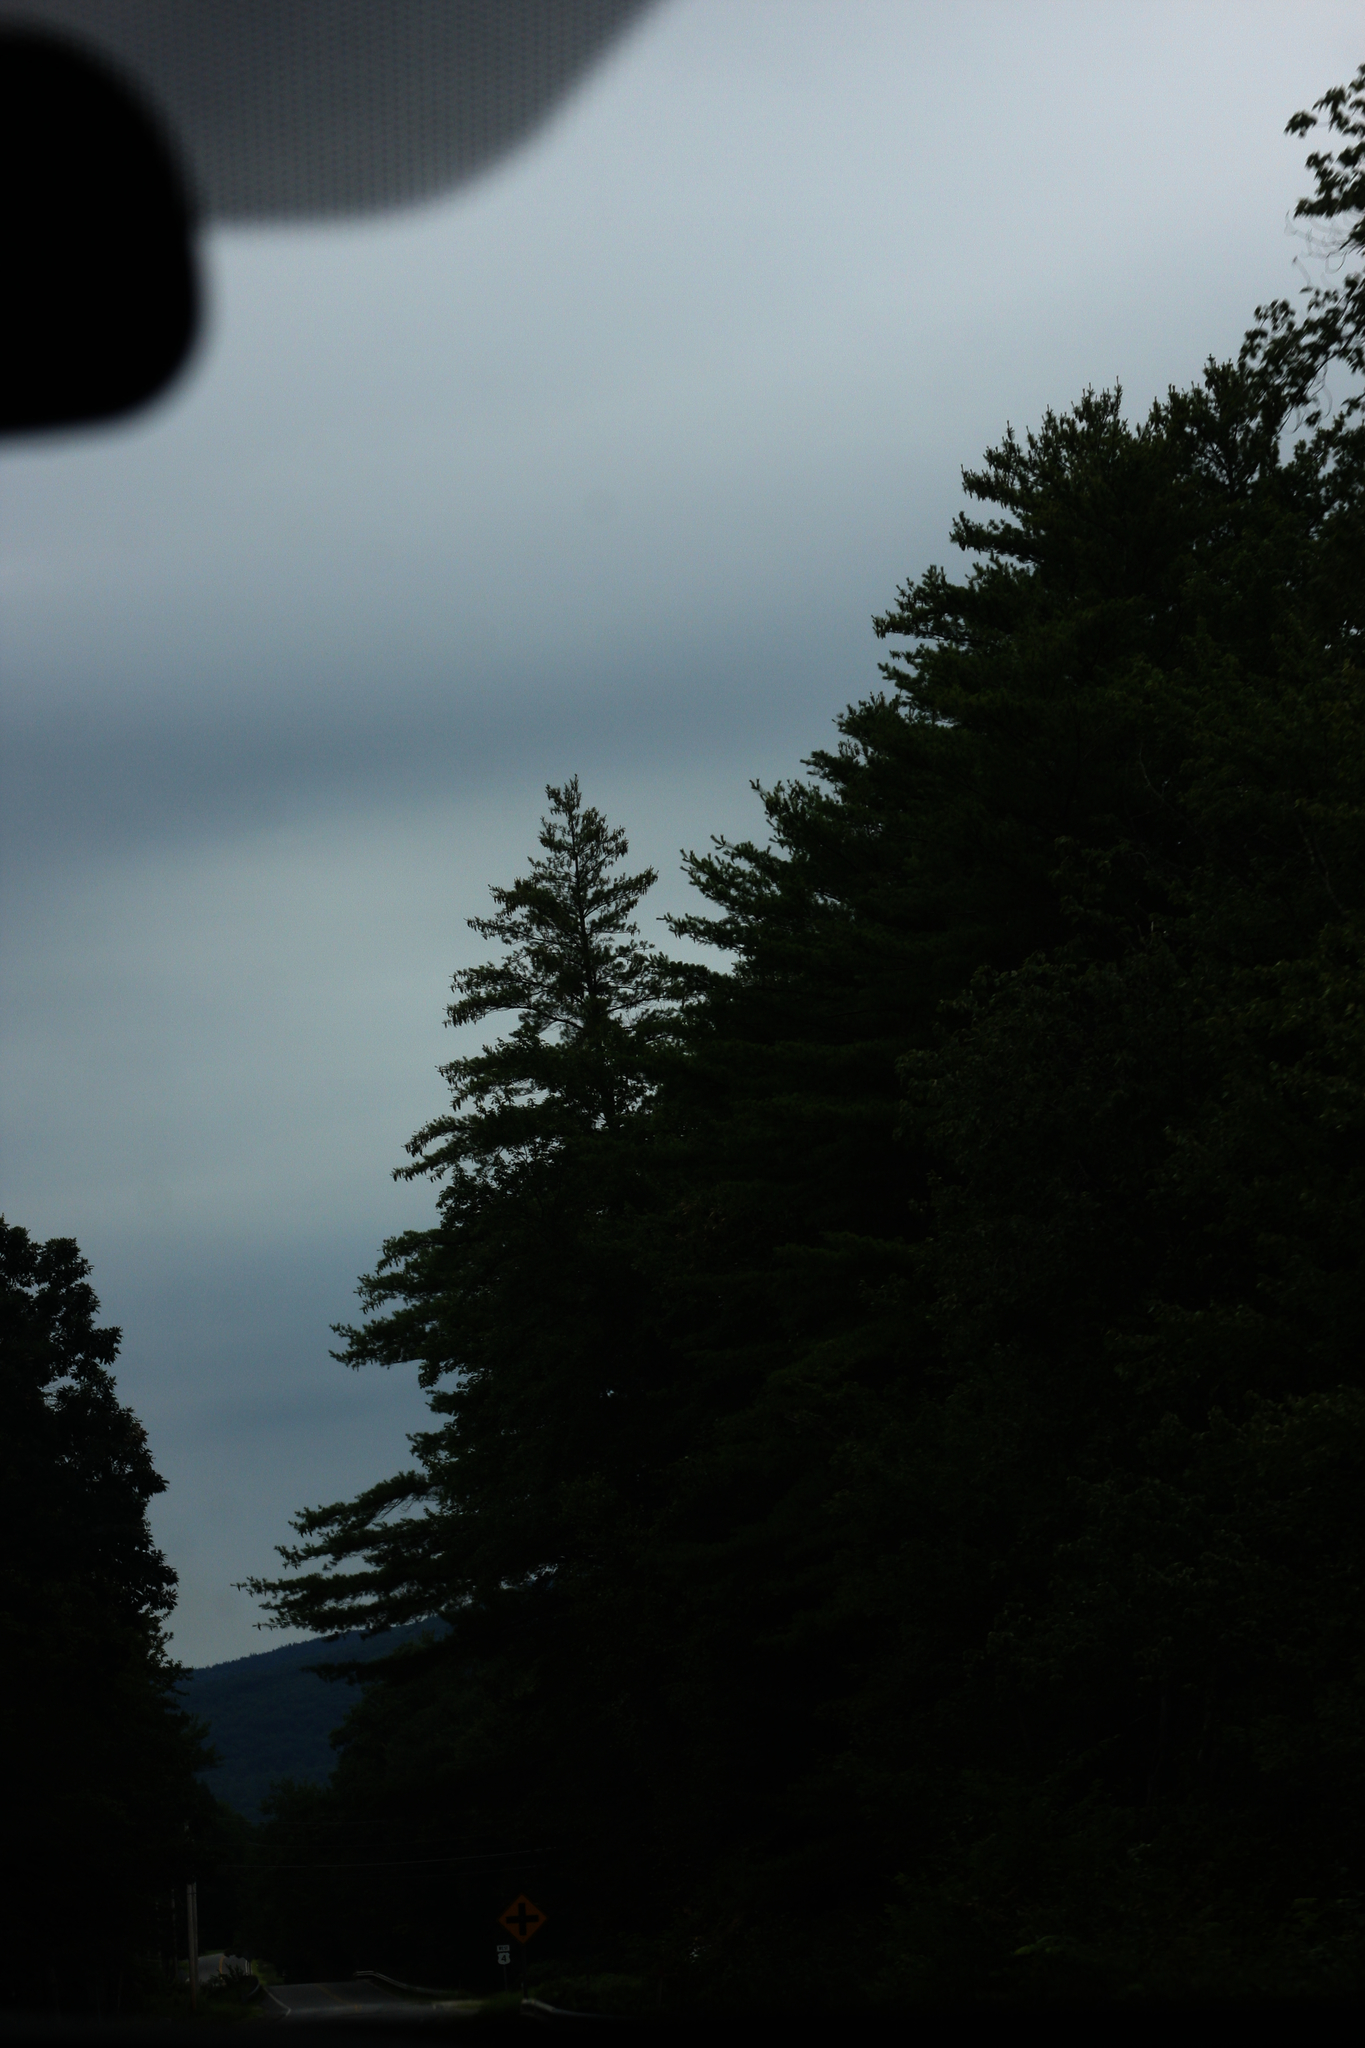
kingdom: Plantae
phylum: Tracheophyta
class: Pinopsida
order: Pinales
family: Pinaceae
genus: Pinus
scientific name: Pinus strobus
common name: Weymouth pine
